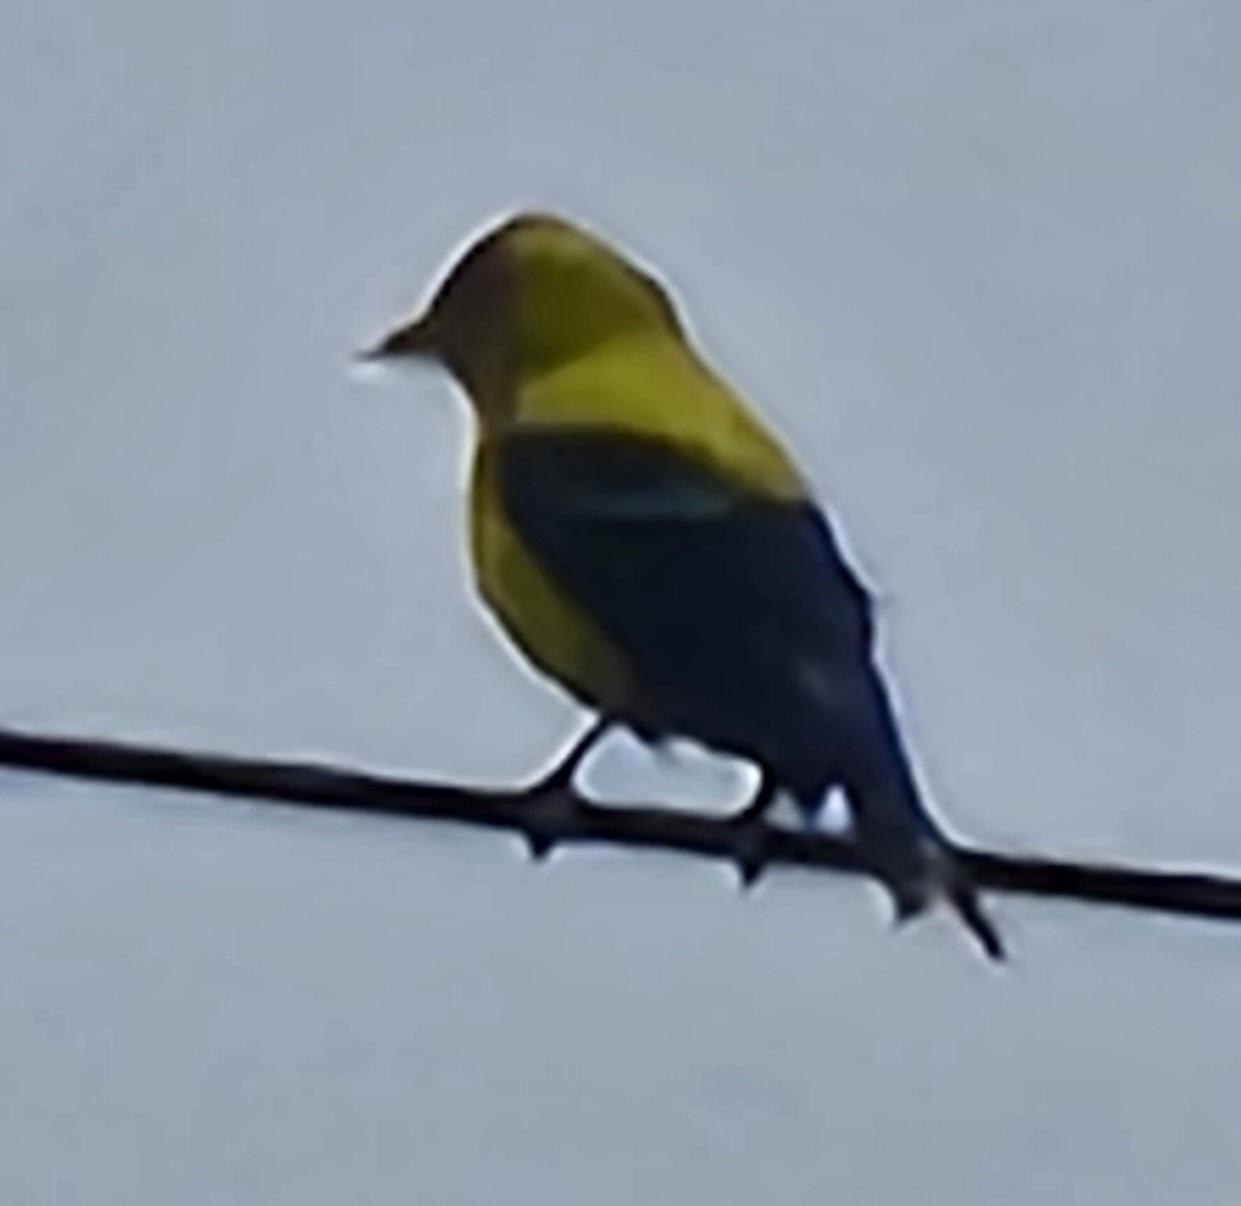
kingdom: Animalia
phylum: Chordata
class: Aves
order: Passeriformes
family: Fringillidae
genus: Spinus
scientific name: Spinus tristis
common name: American goldfinch
